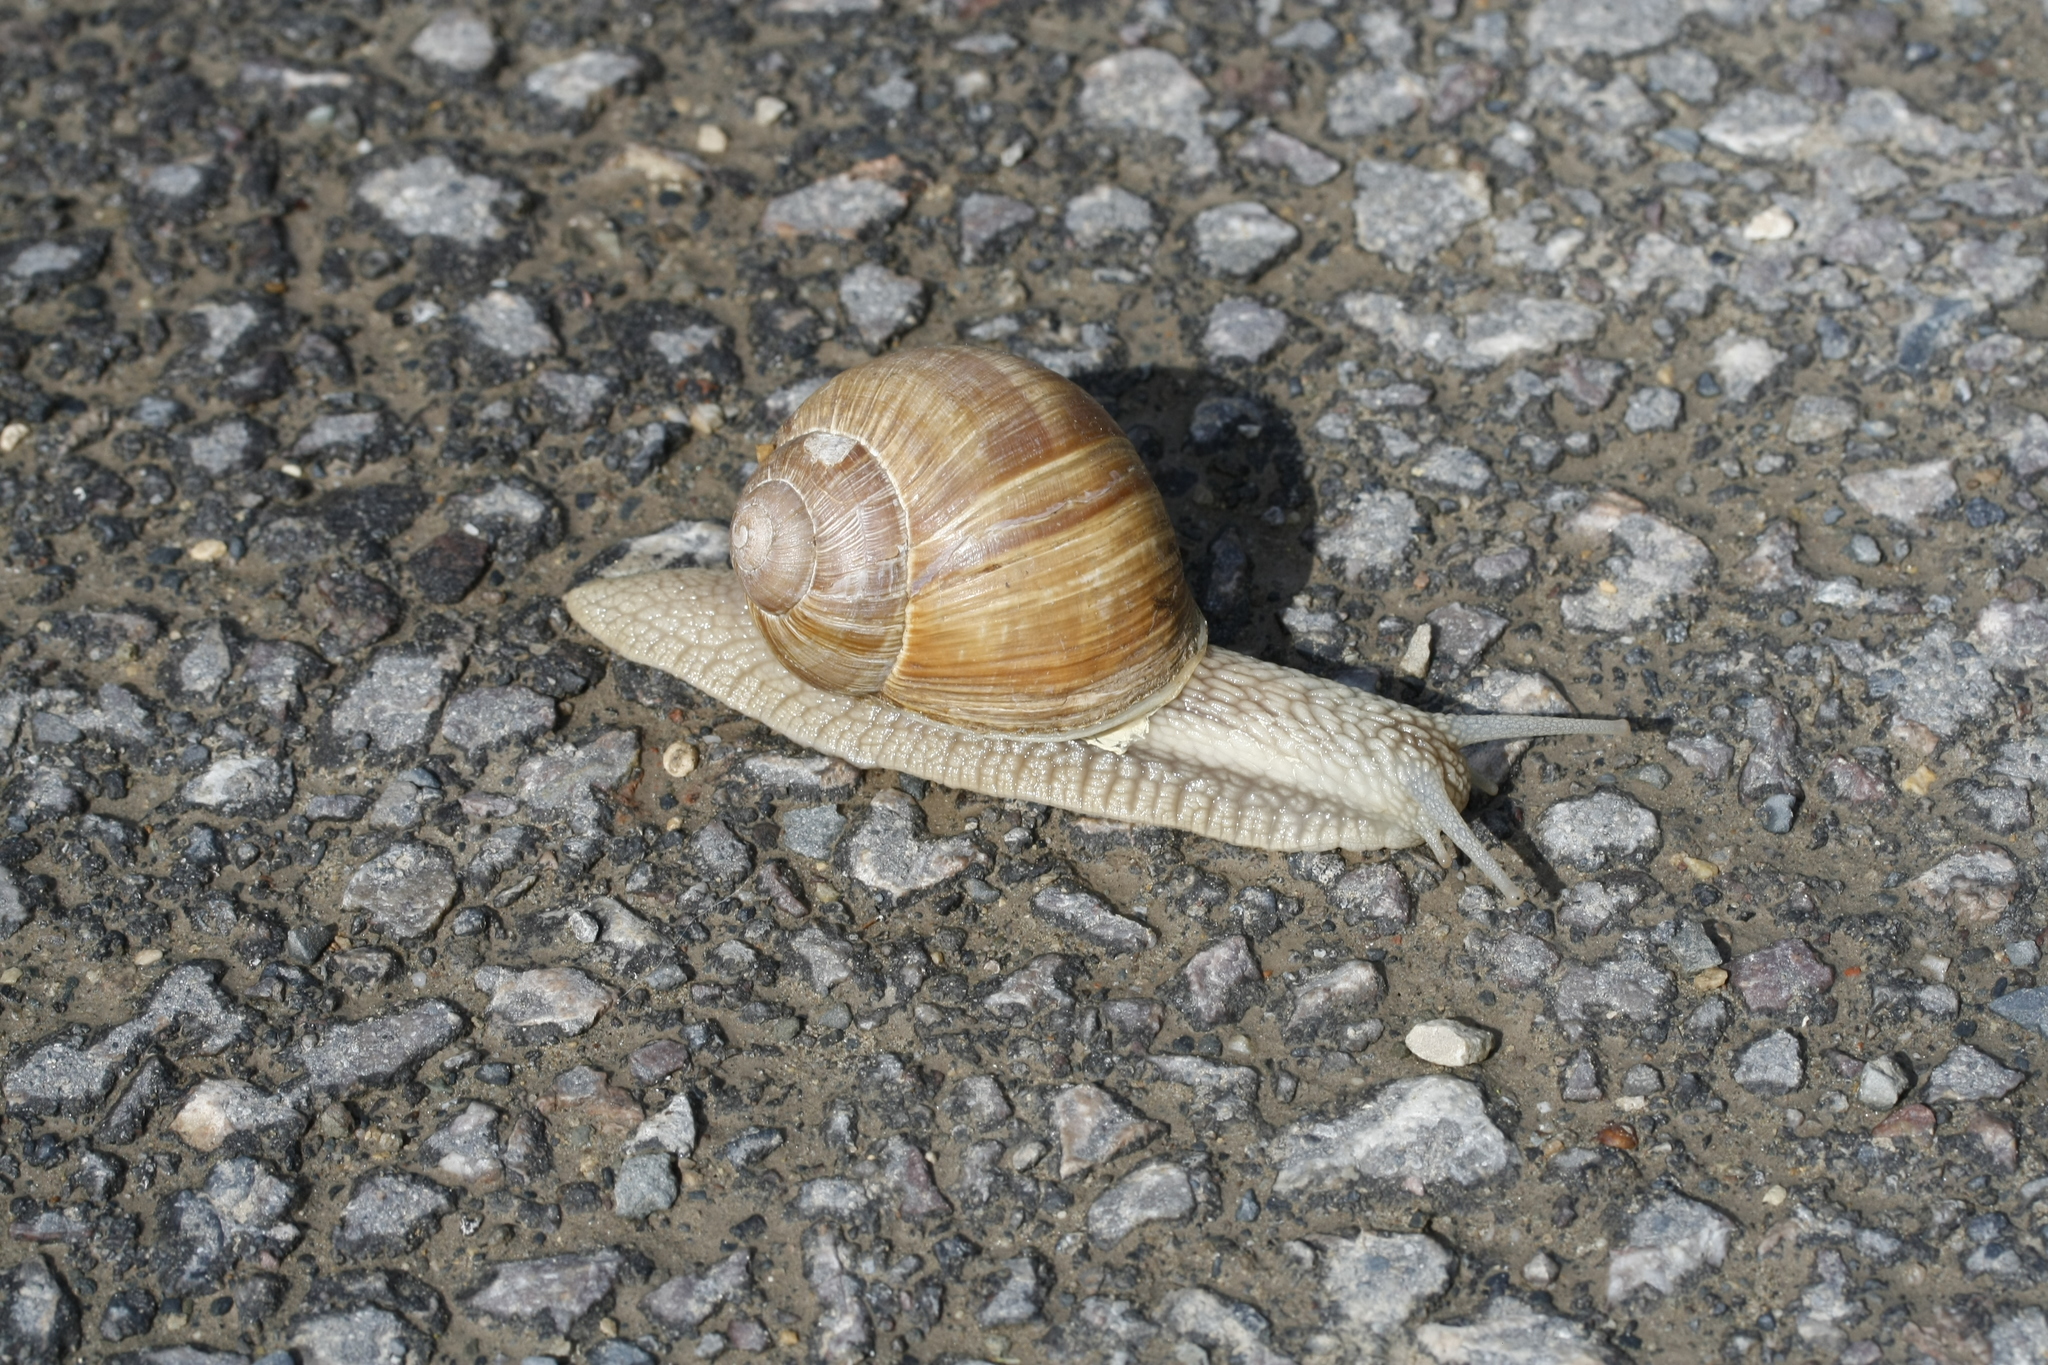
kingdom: Animalia
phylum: Mollusca
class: Gastropoda
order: Stylommatophora
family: Helicidae
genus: Helix
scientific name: Helix pomatia
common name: Roman snail
